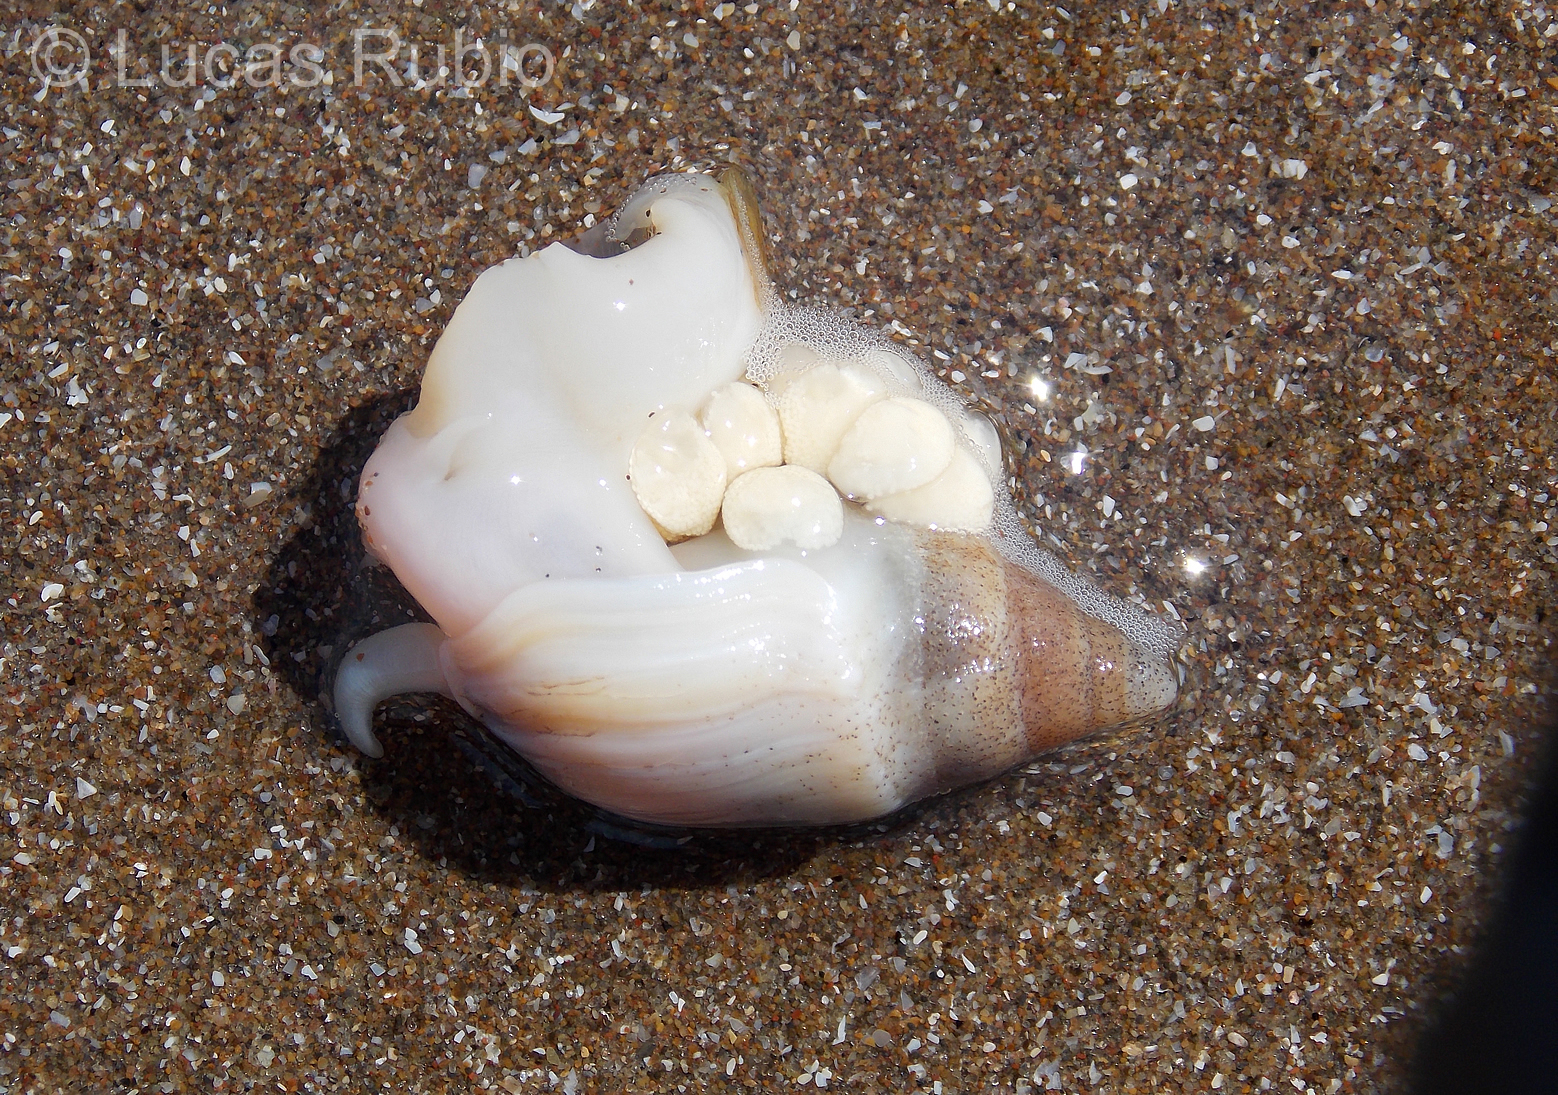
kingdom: Animalia
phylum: Mollusca
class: Gastropoda
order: Neogastropoda
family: Buccinanopsidae
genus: Buccinastrum
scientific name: Buccinastrum duartei
